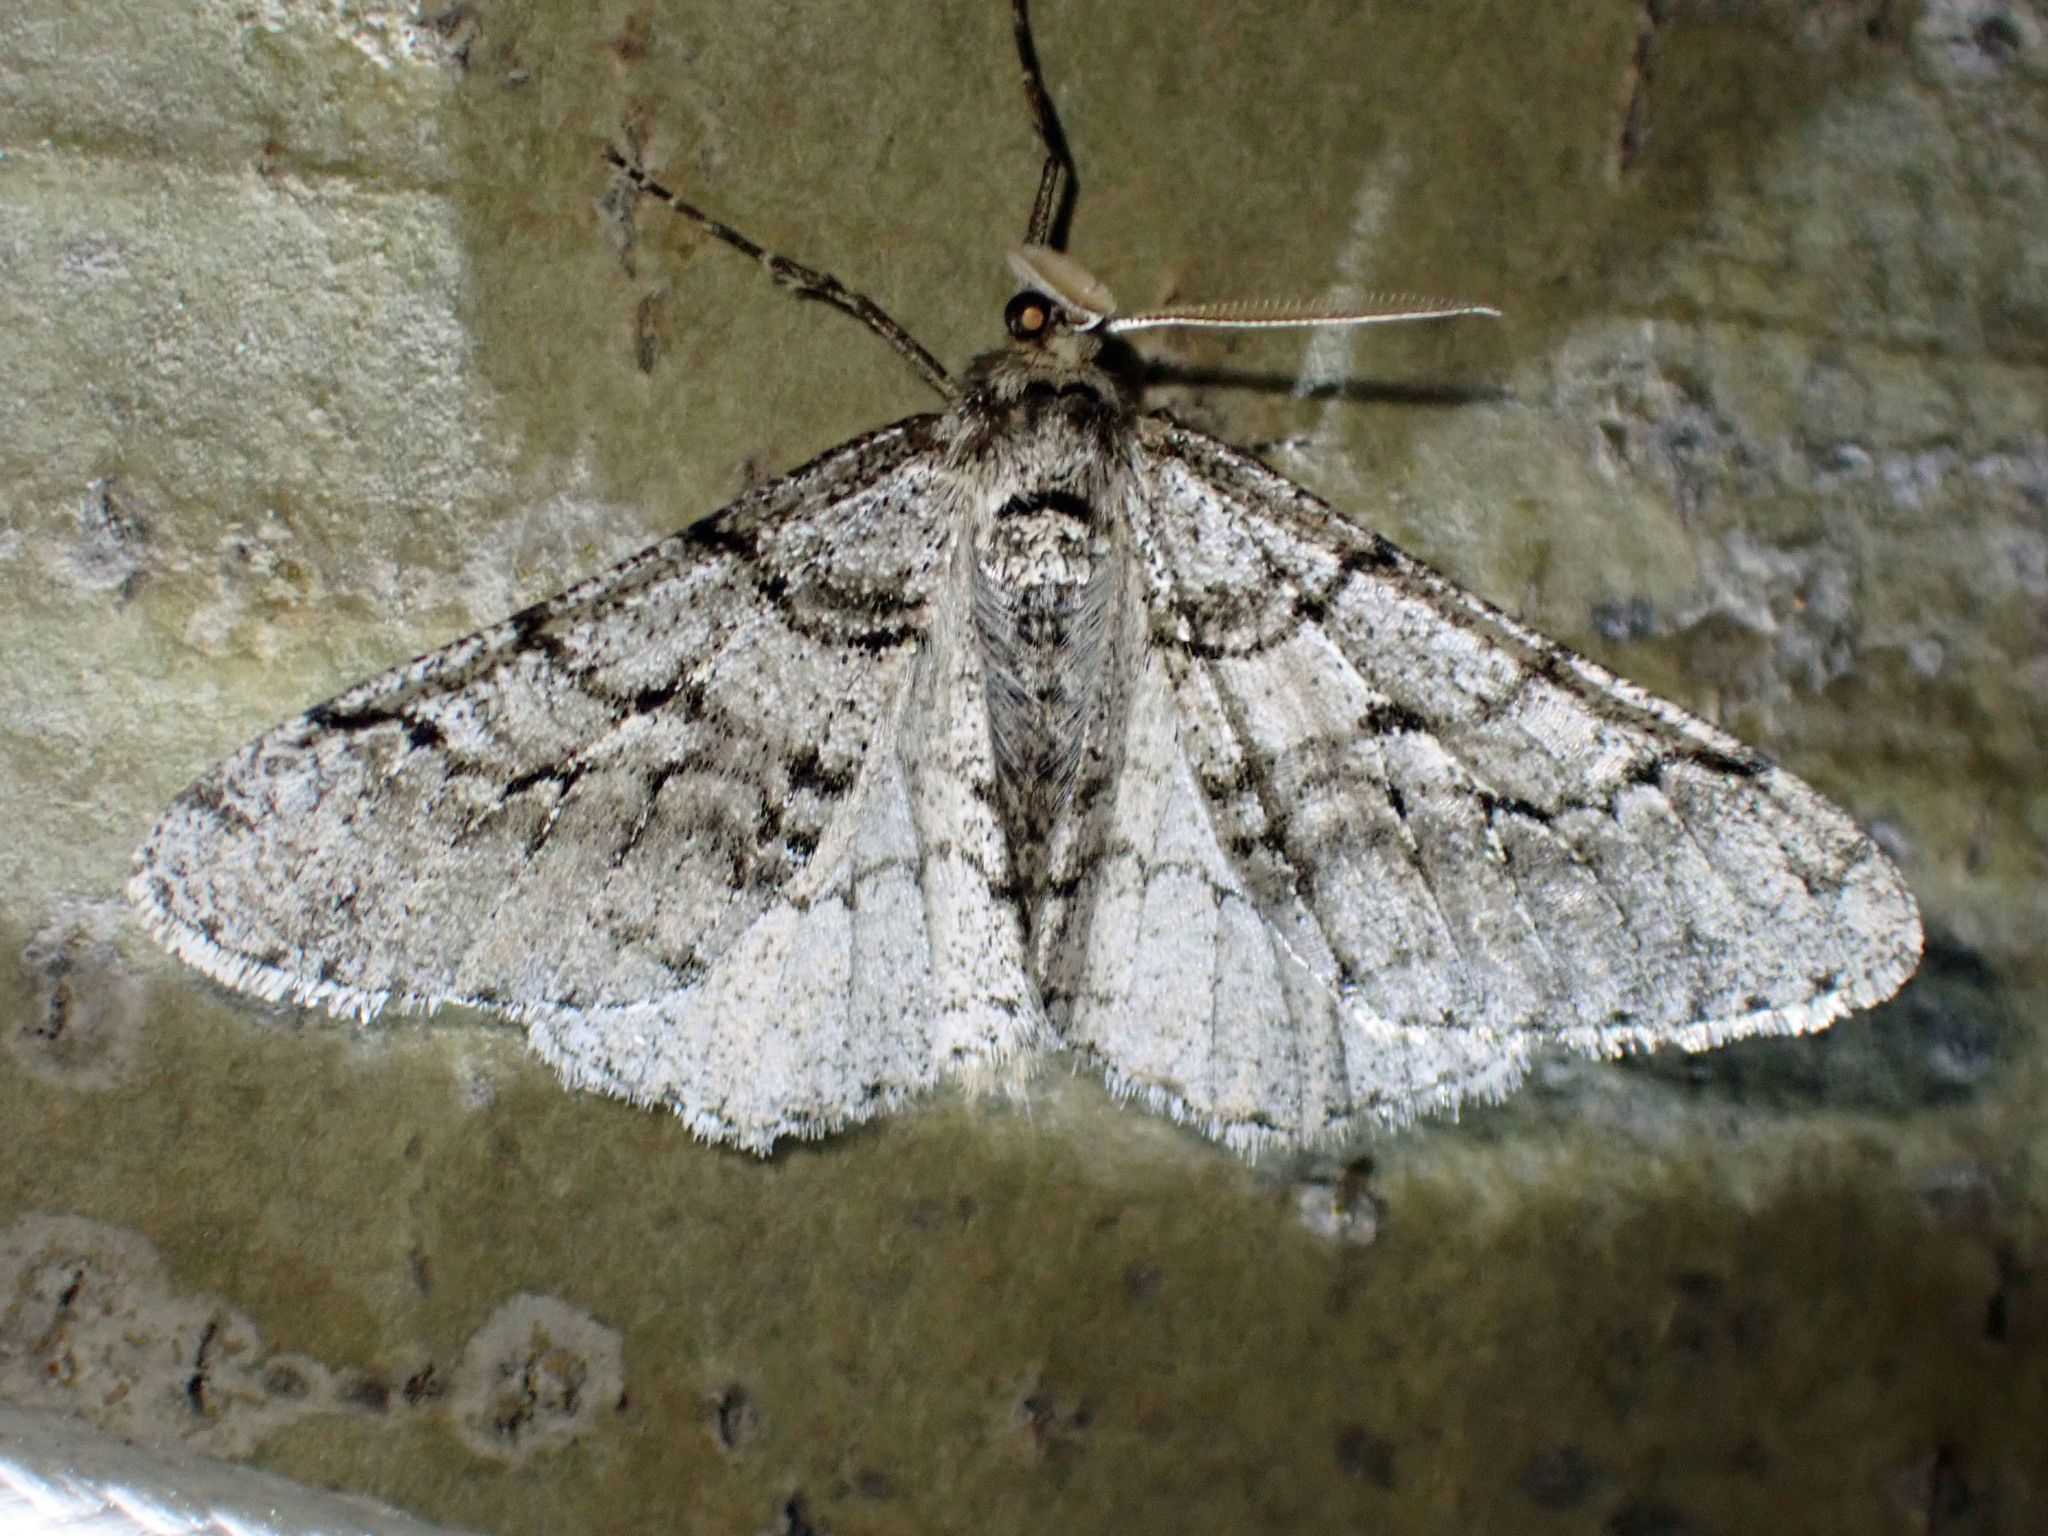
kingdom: Animalia
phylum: Arthropoda
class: Insecta
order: Lepidoptera
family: Geometridae
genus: Phigalia
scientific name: Phigalia titea
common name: Spiny looper
